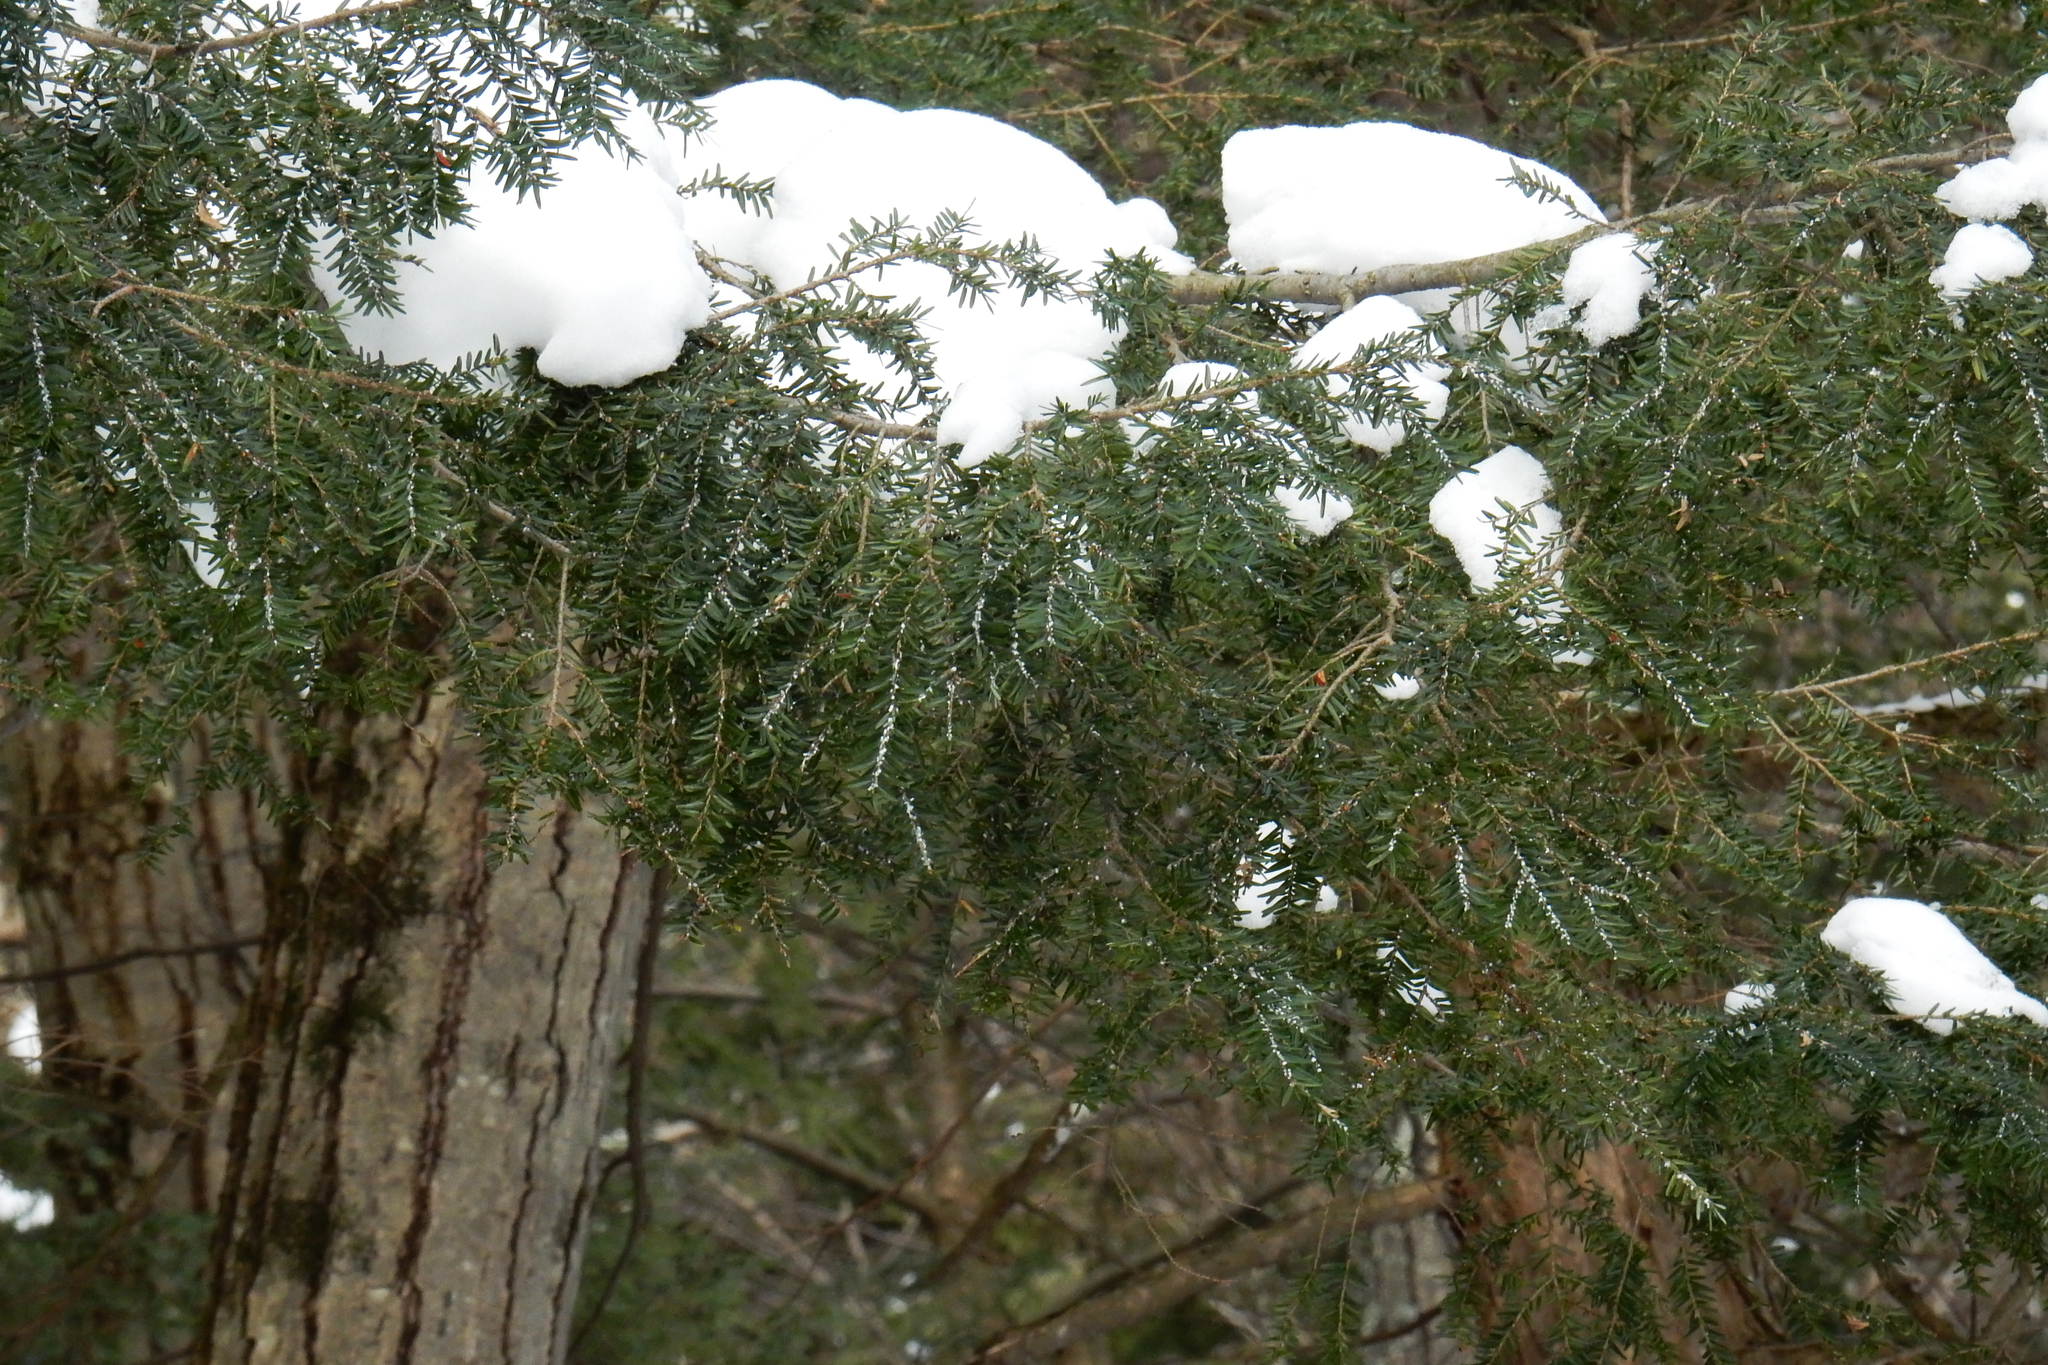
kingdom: Animalia
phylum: Arthropoda
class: Insecta
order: Hemiptera
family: Adelgidae
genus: Adelges
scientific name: Adelges tsugae
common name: Hemlock woolly adelgid
